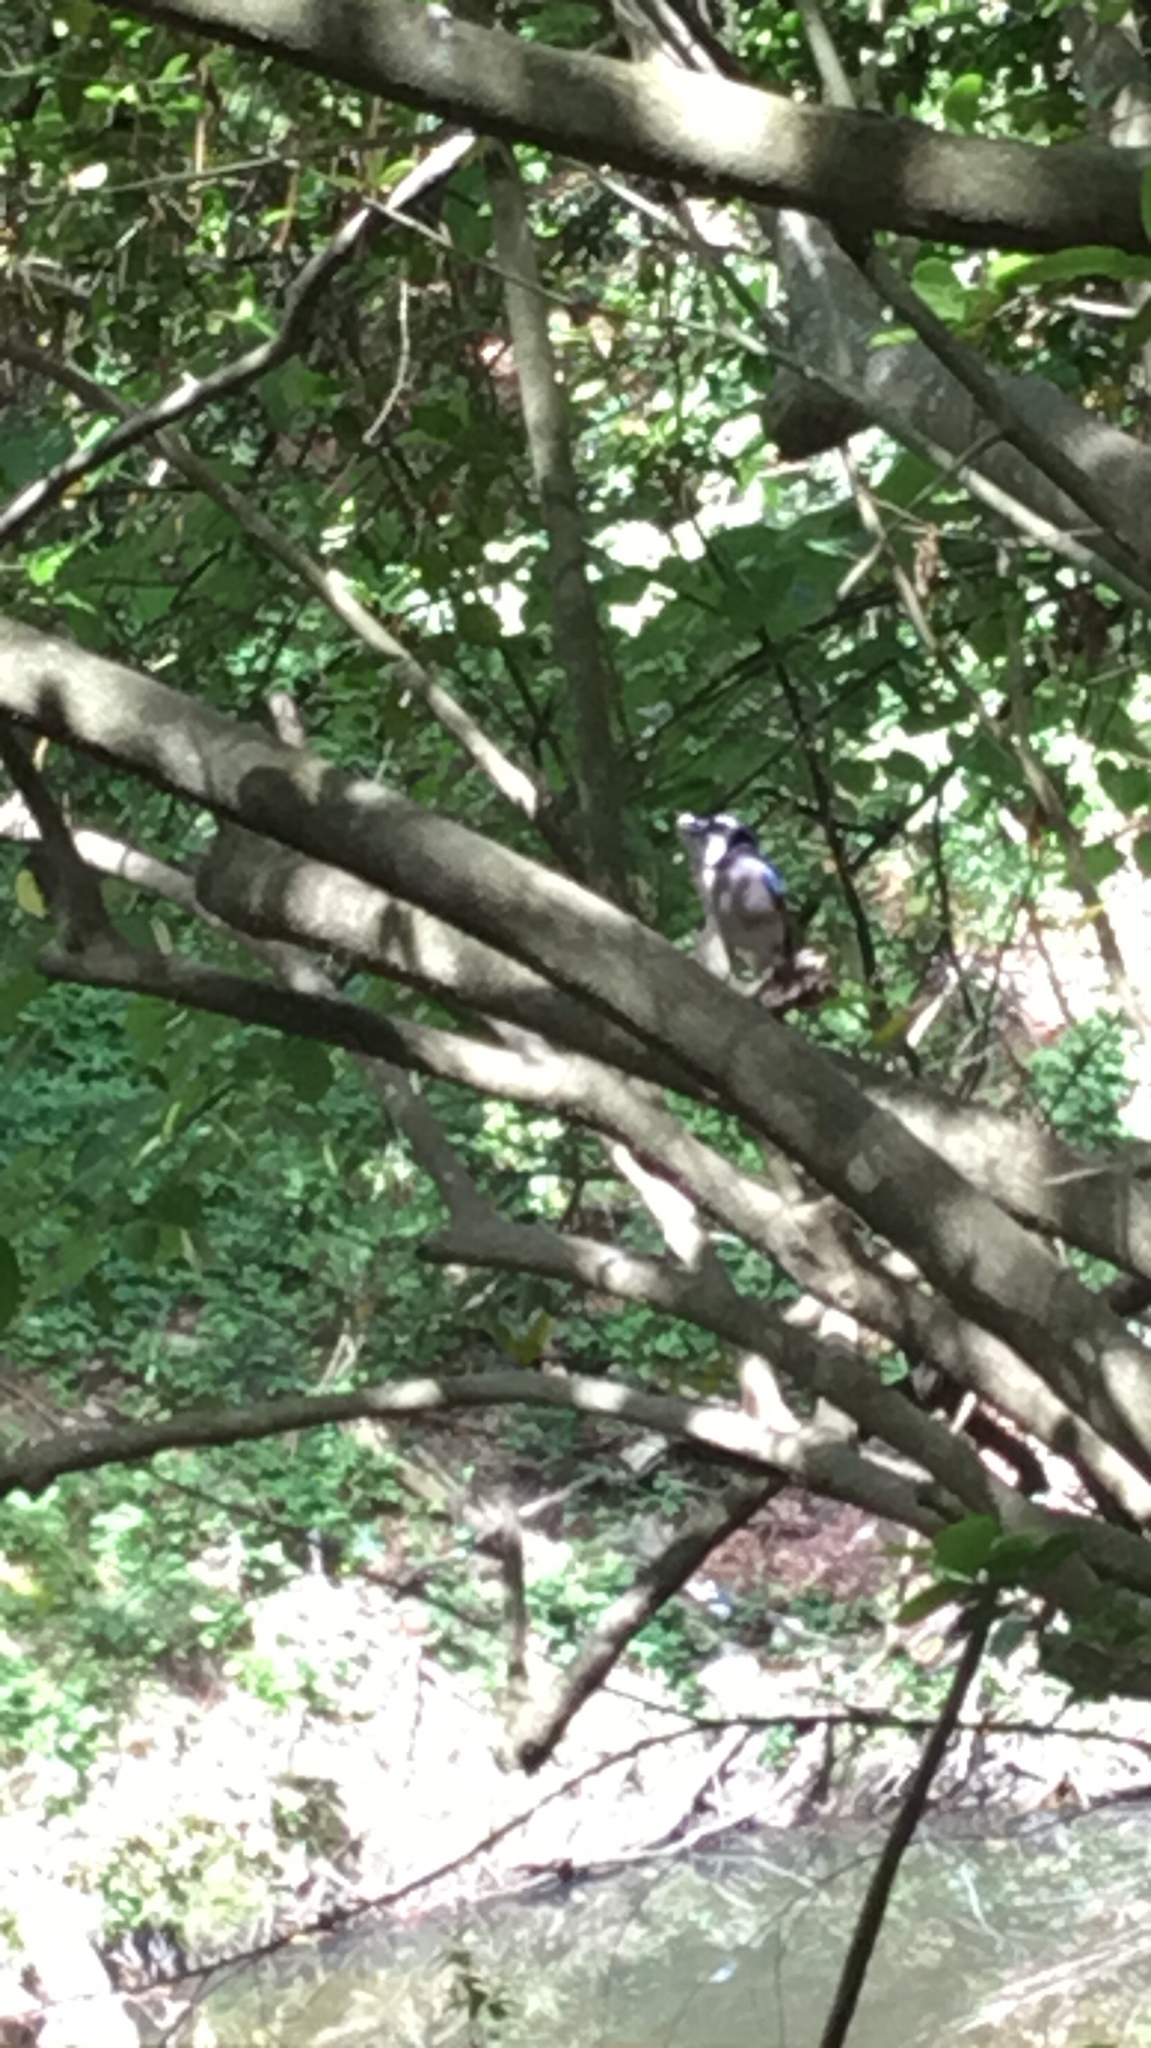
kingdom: Animalia
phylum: Chordata
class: Aves
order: Passeriformes
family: Corvidae
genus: Cyanocitta
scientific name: Cyanocitta cristata
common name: Blue jay
